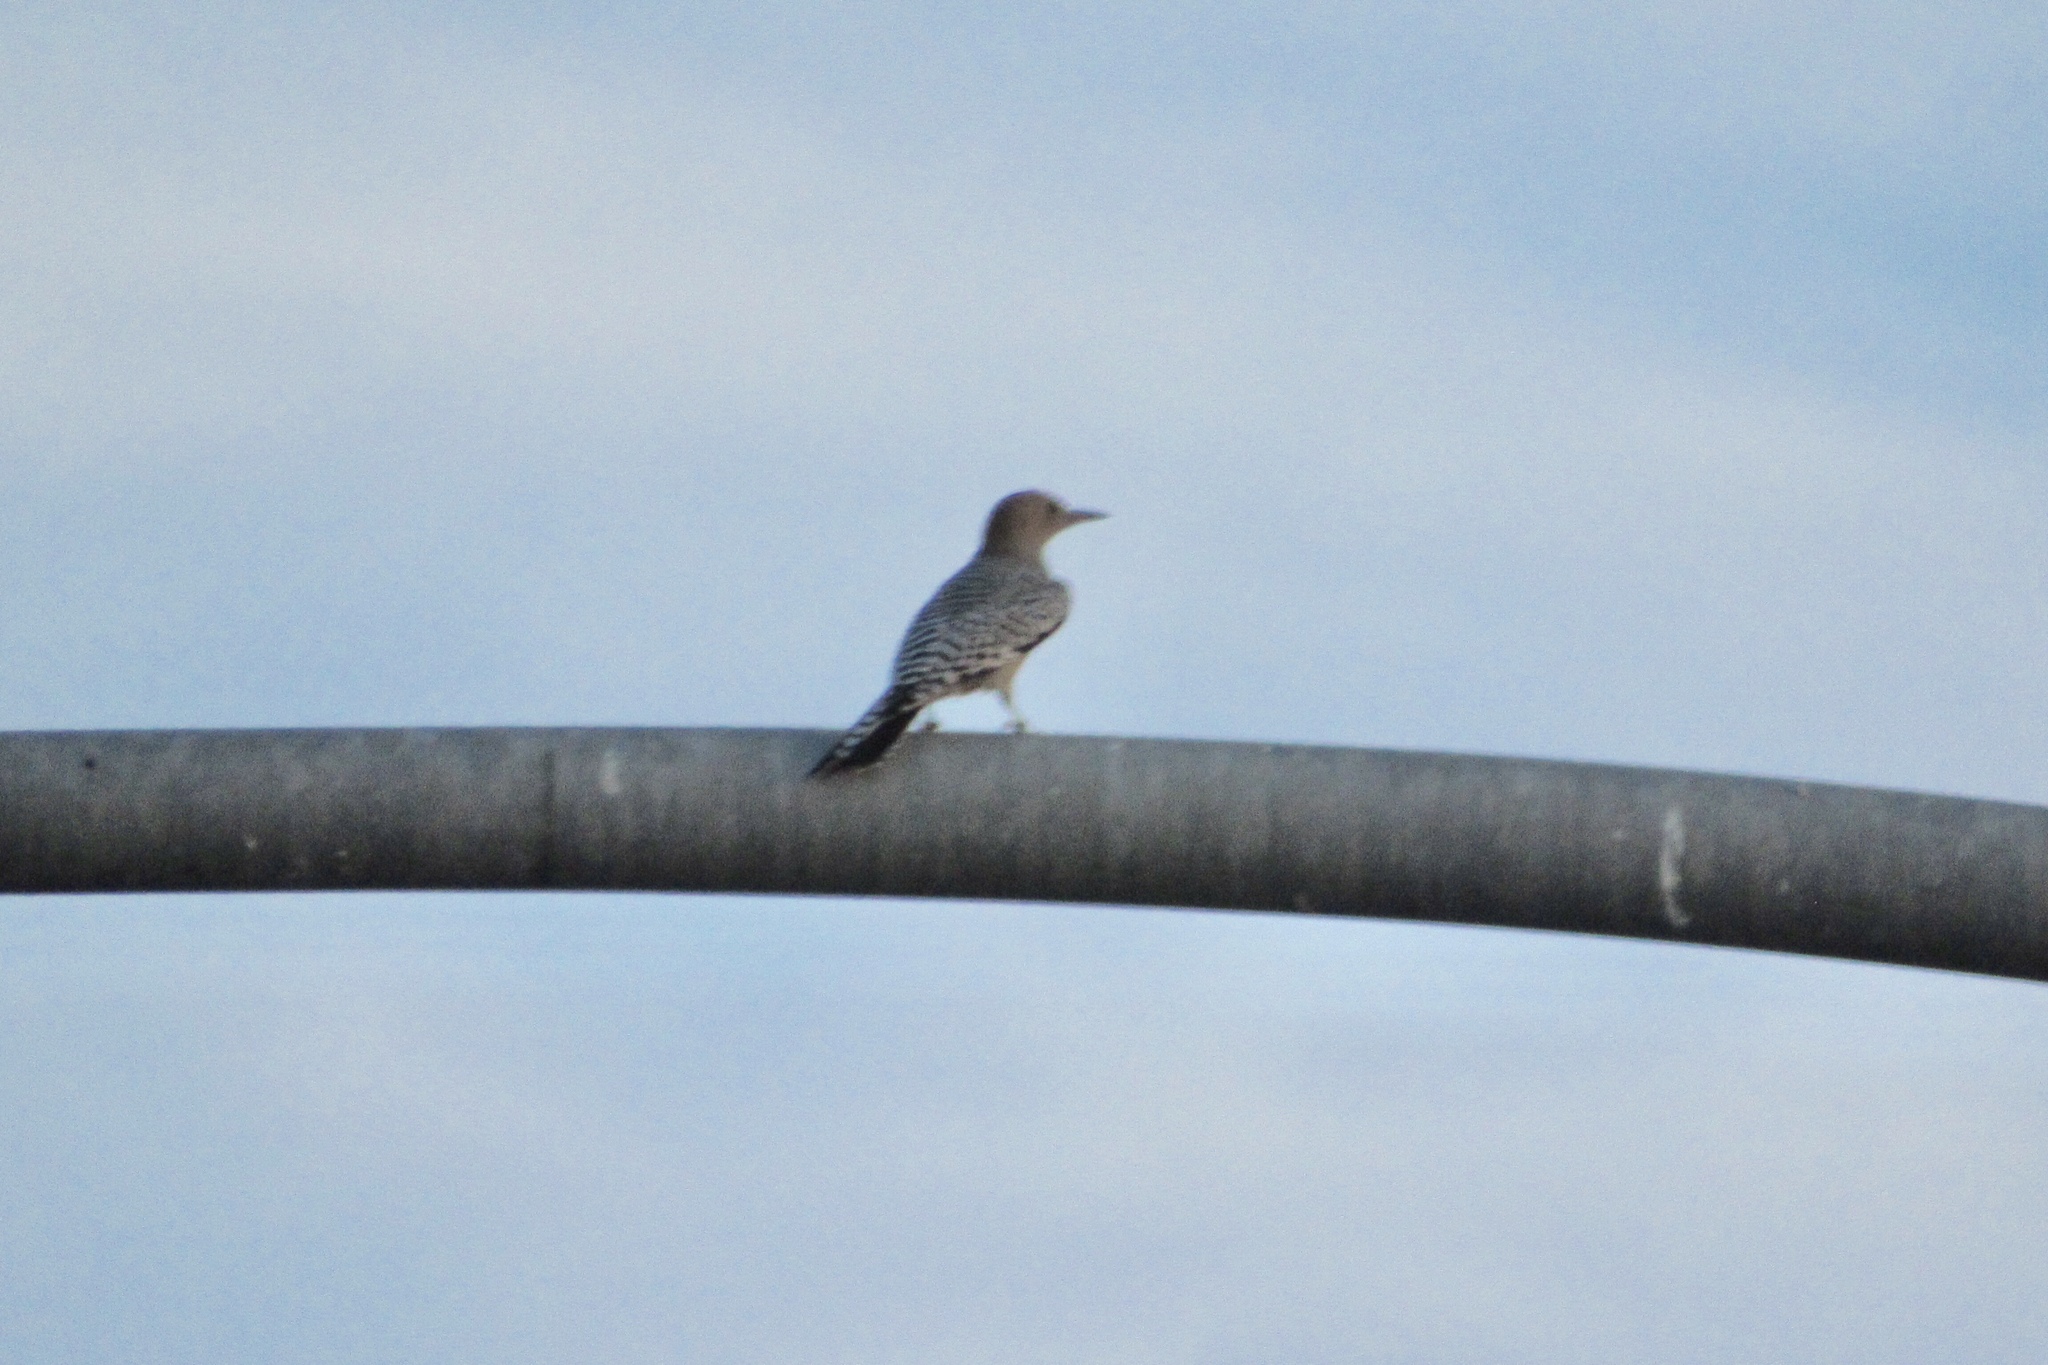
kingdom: Animalia
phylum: Chordata
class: Aves
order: Piciformes
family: Picidae
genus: Melanerpes
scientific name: Melanerpes uropygialis
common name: Gila woodpecker
